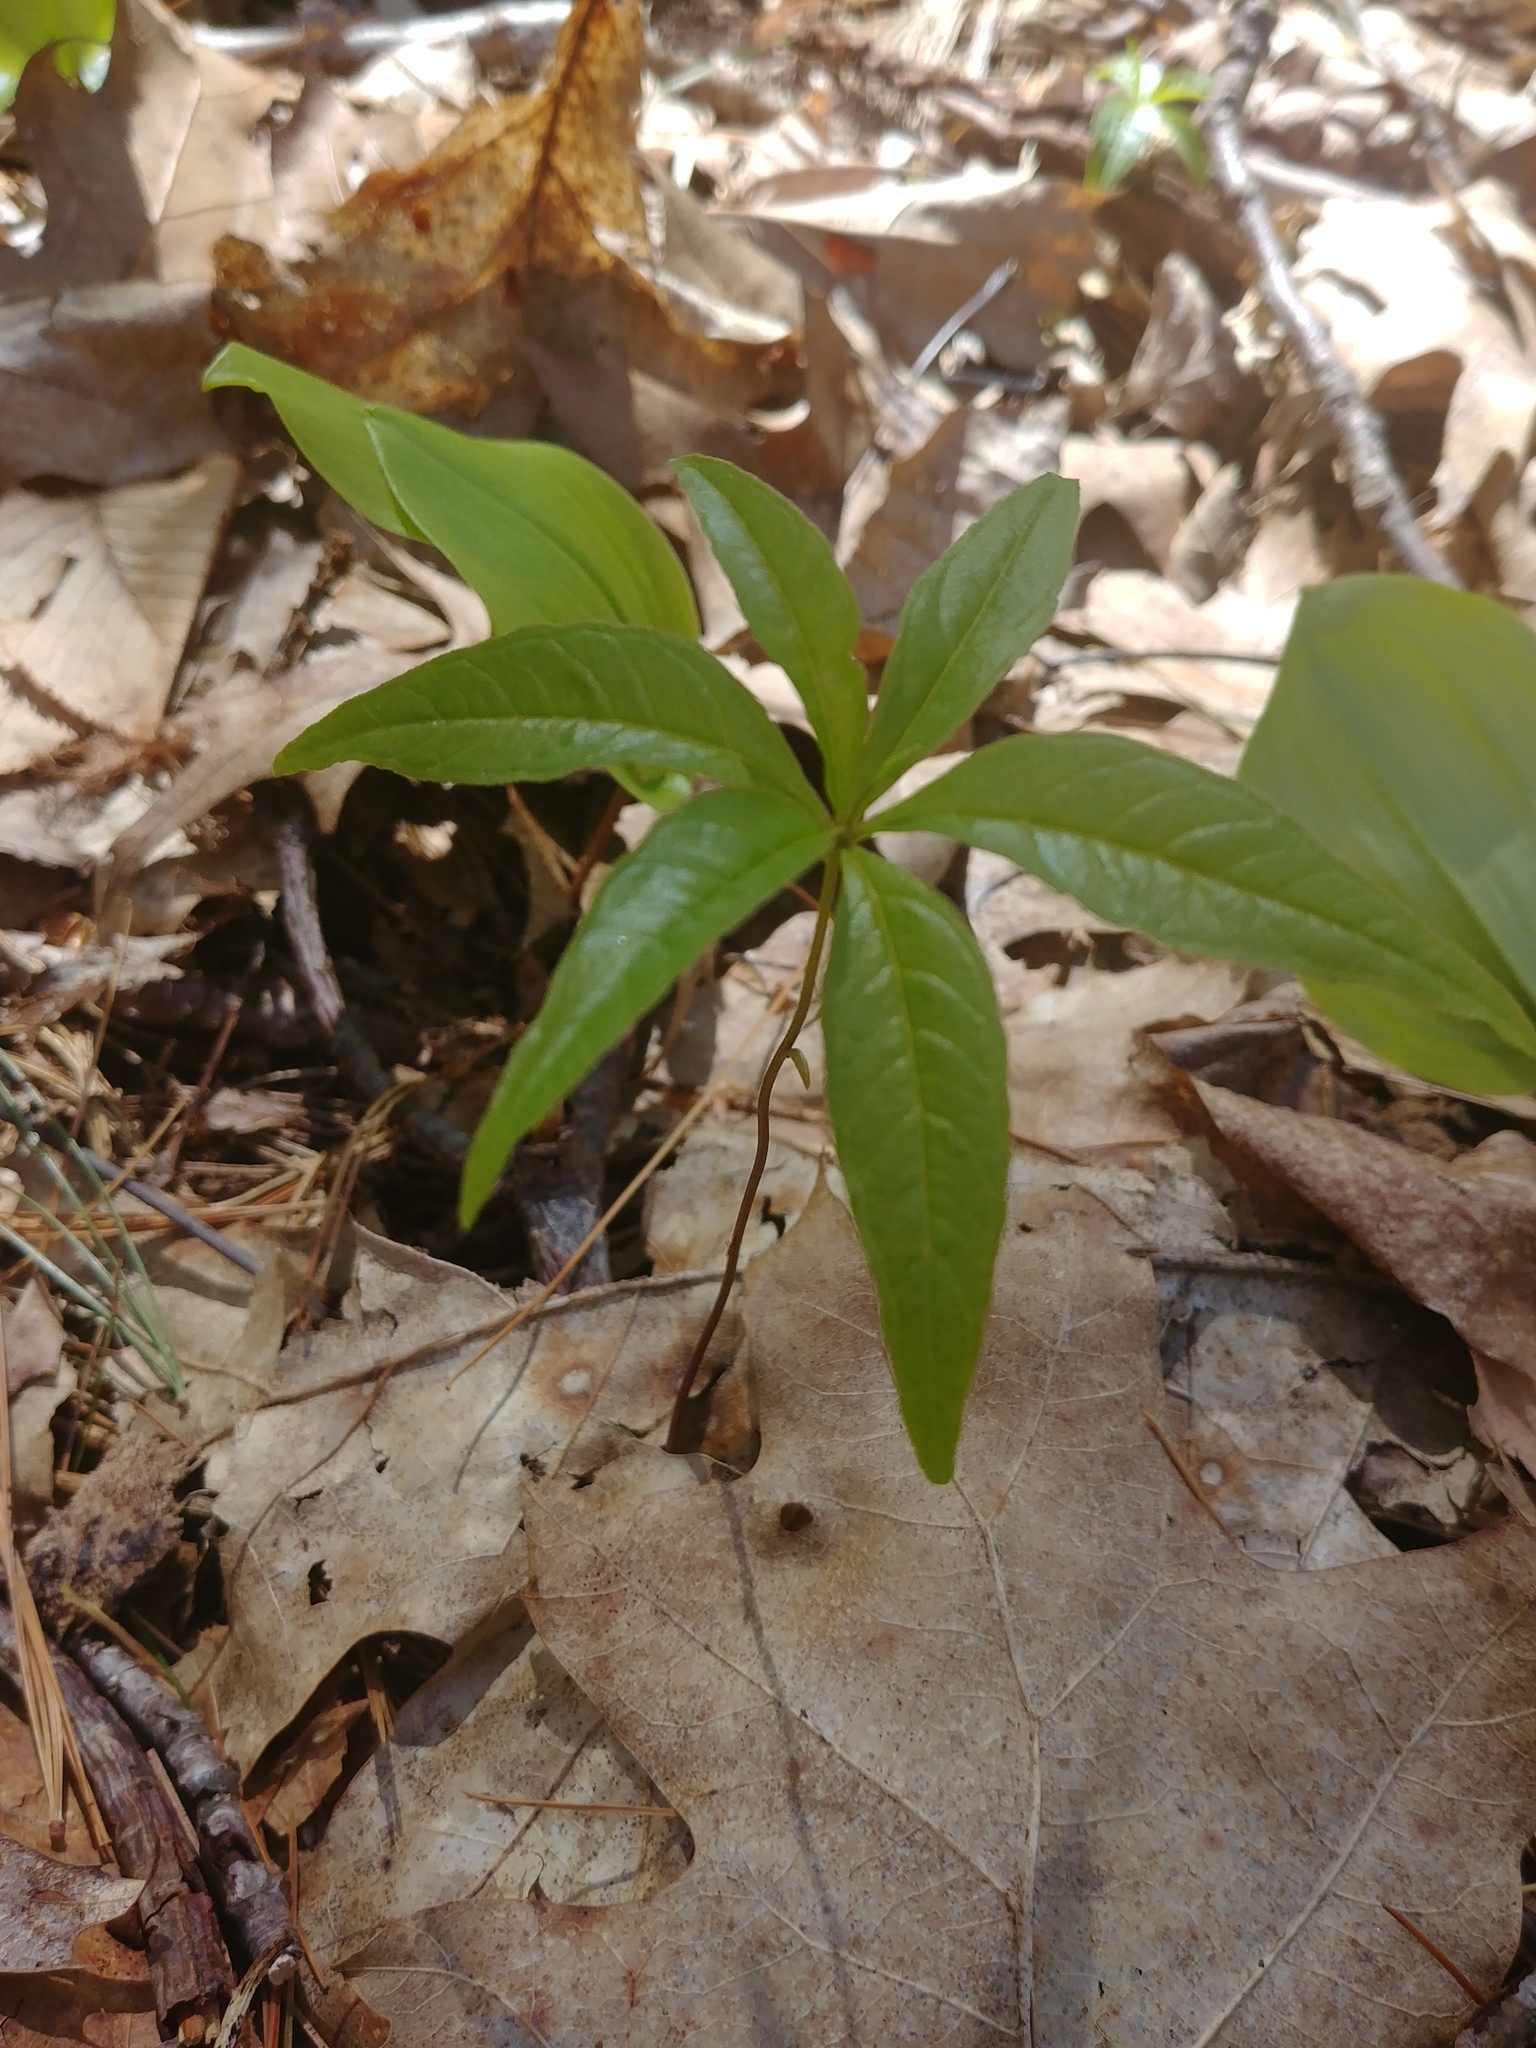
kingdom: Plantae
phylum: Tracheophyta
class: Magnoliopsida
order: Ericales
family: Primulaceae
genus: Lysimachia
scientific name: Lysimachia borealis
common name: American starflower
